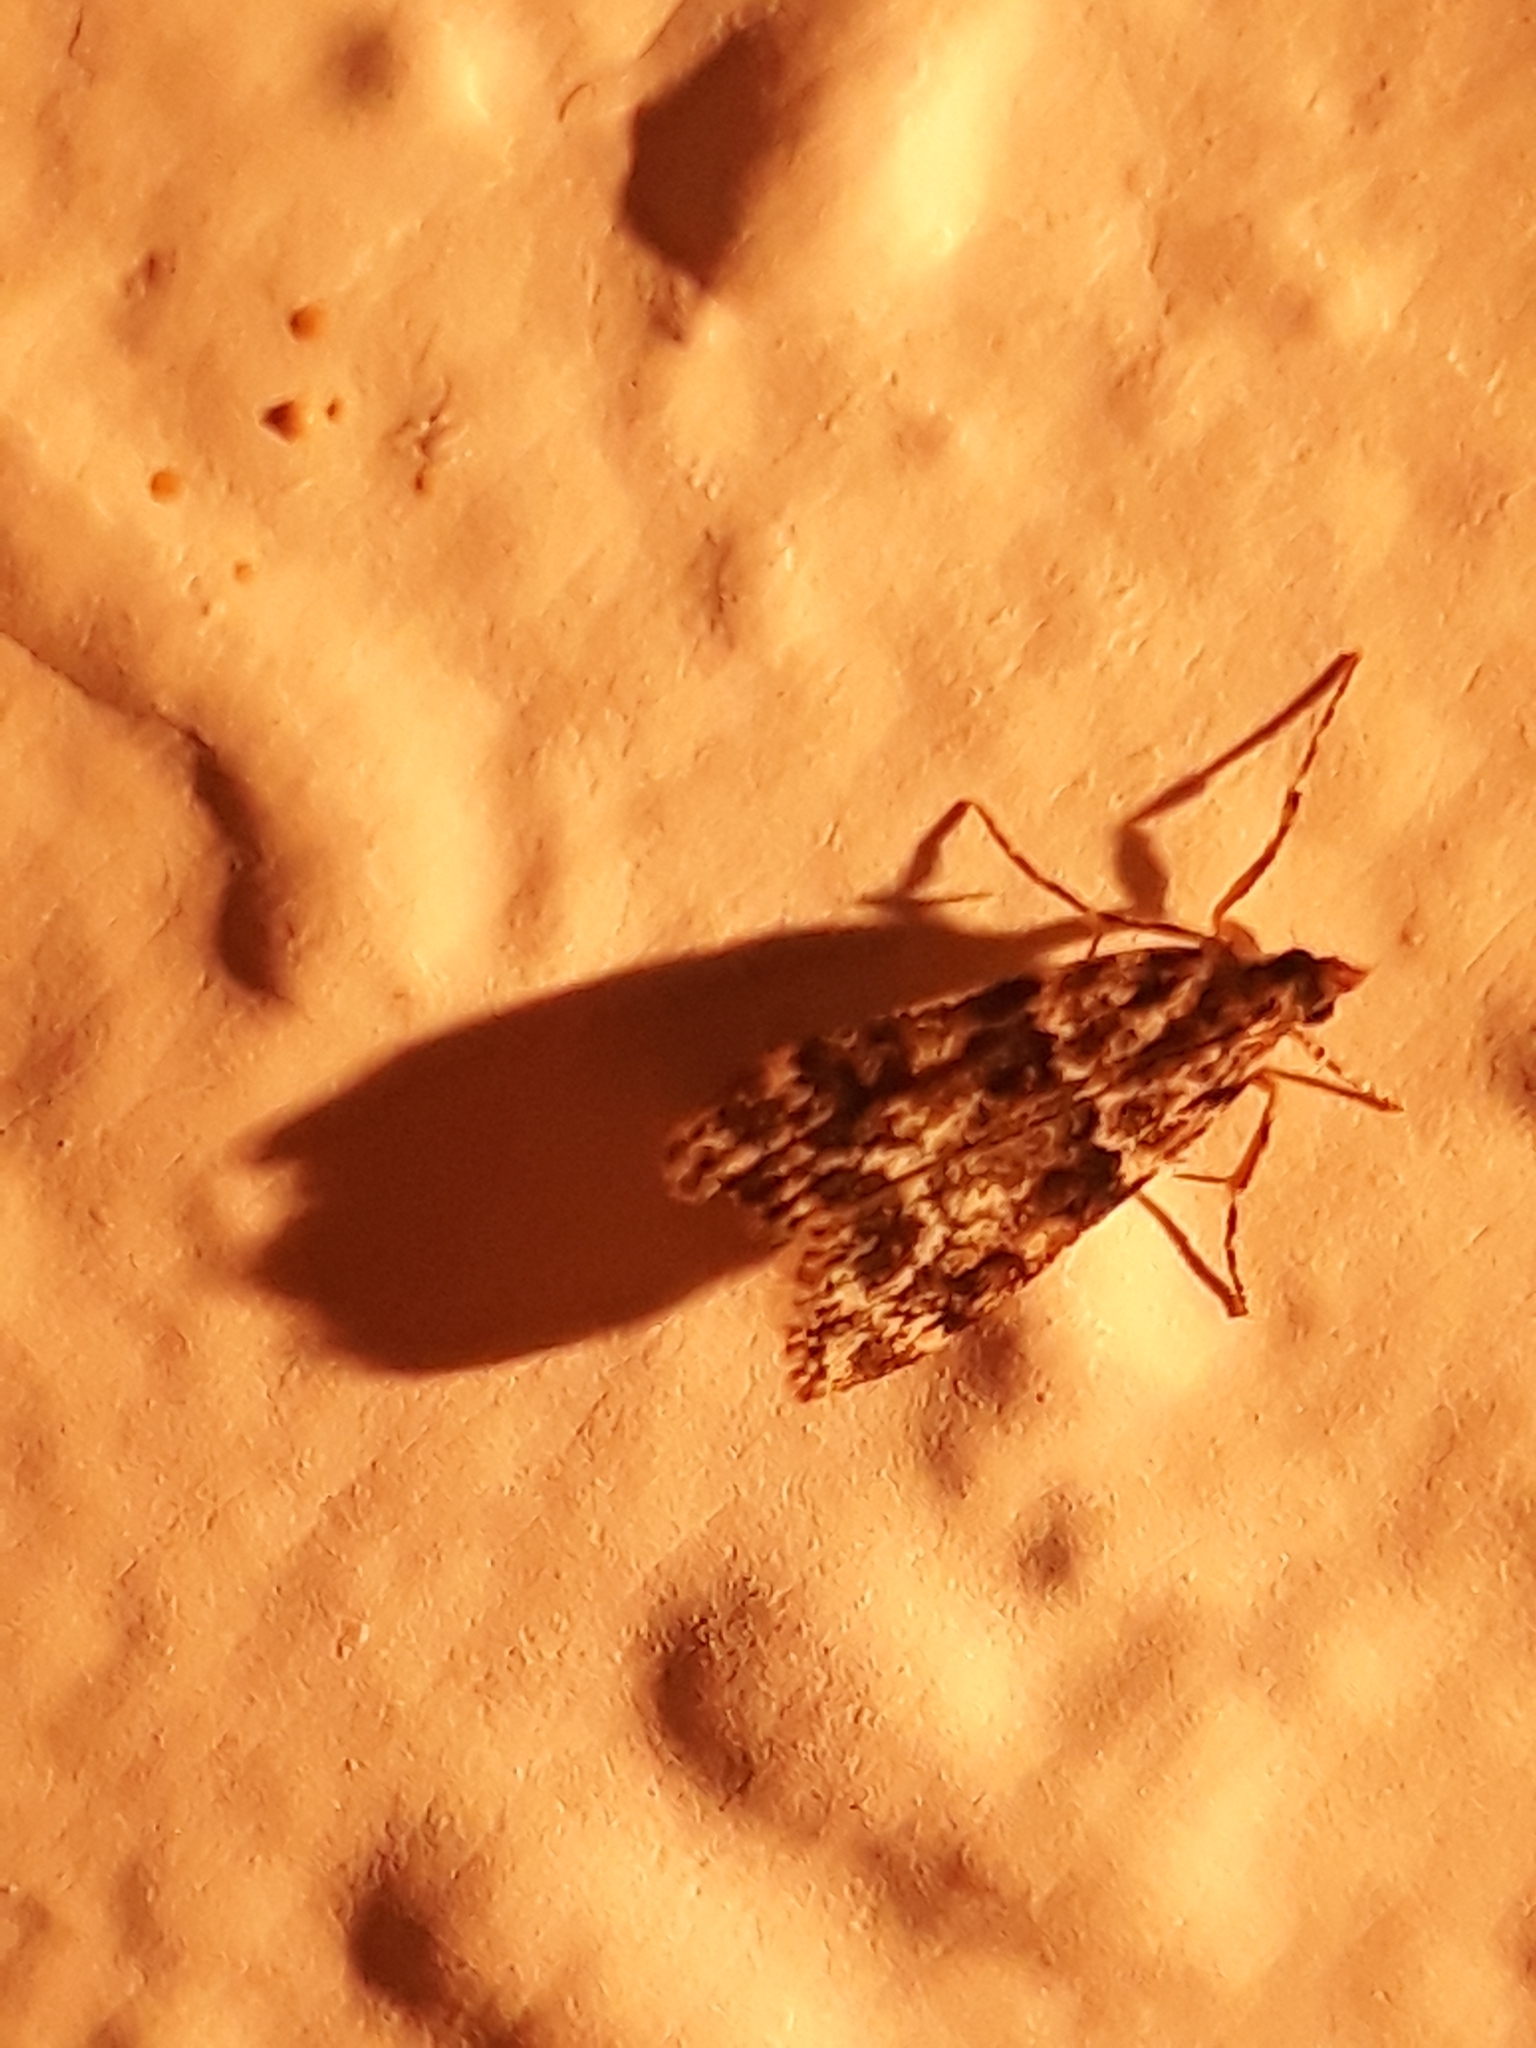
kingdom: Animalia
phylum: Arthropoda
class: Insecta
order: Lepidoptera
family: Crambidae
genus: Eudonia
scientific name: Eudonia delunella
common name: Pied grey
